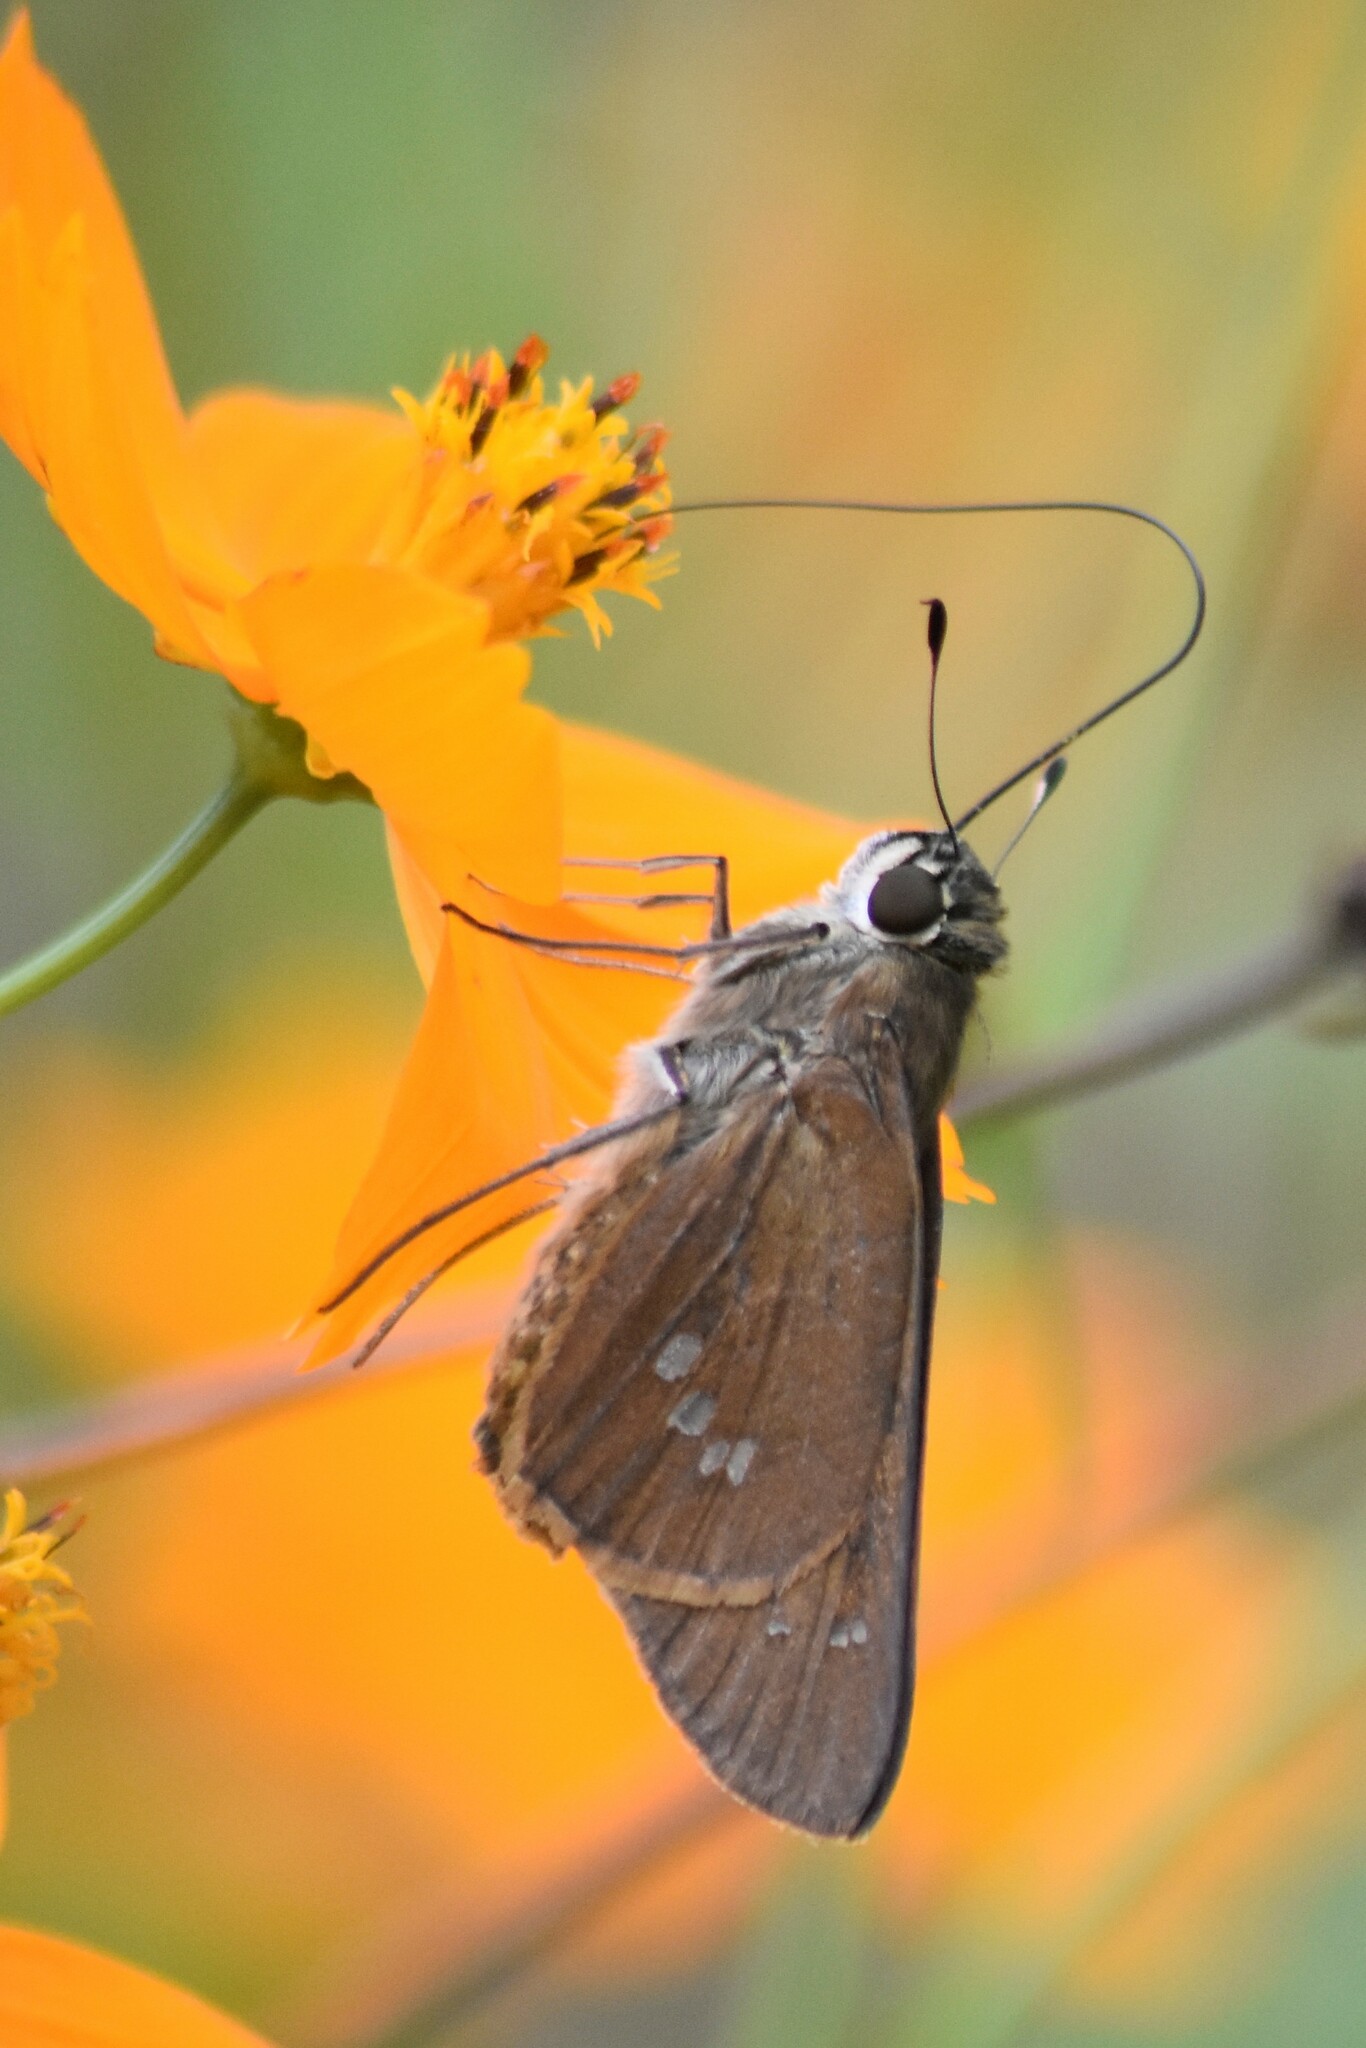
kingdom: Animalia
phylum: Arthropoda
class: Insecta
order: Lepidoptera
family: Hesperiidae
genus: Calpodes
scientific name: Calpodes ethlius
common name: Brazilian skipper
